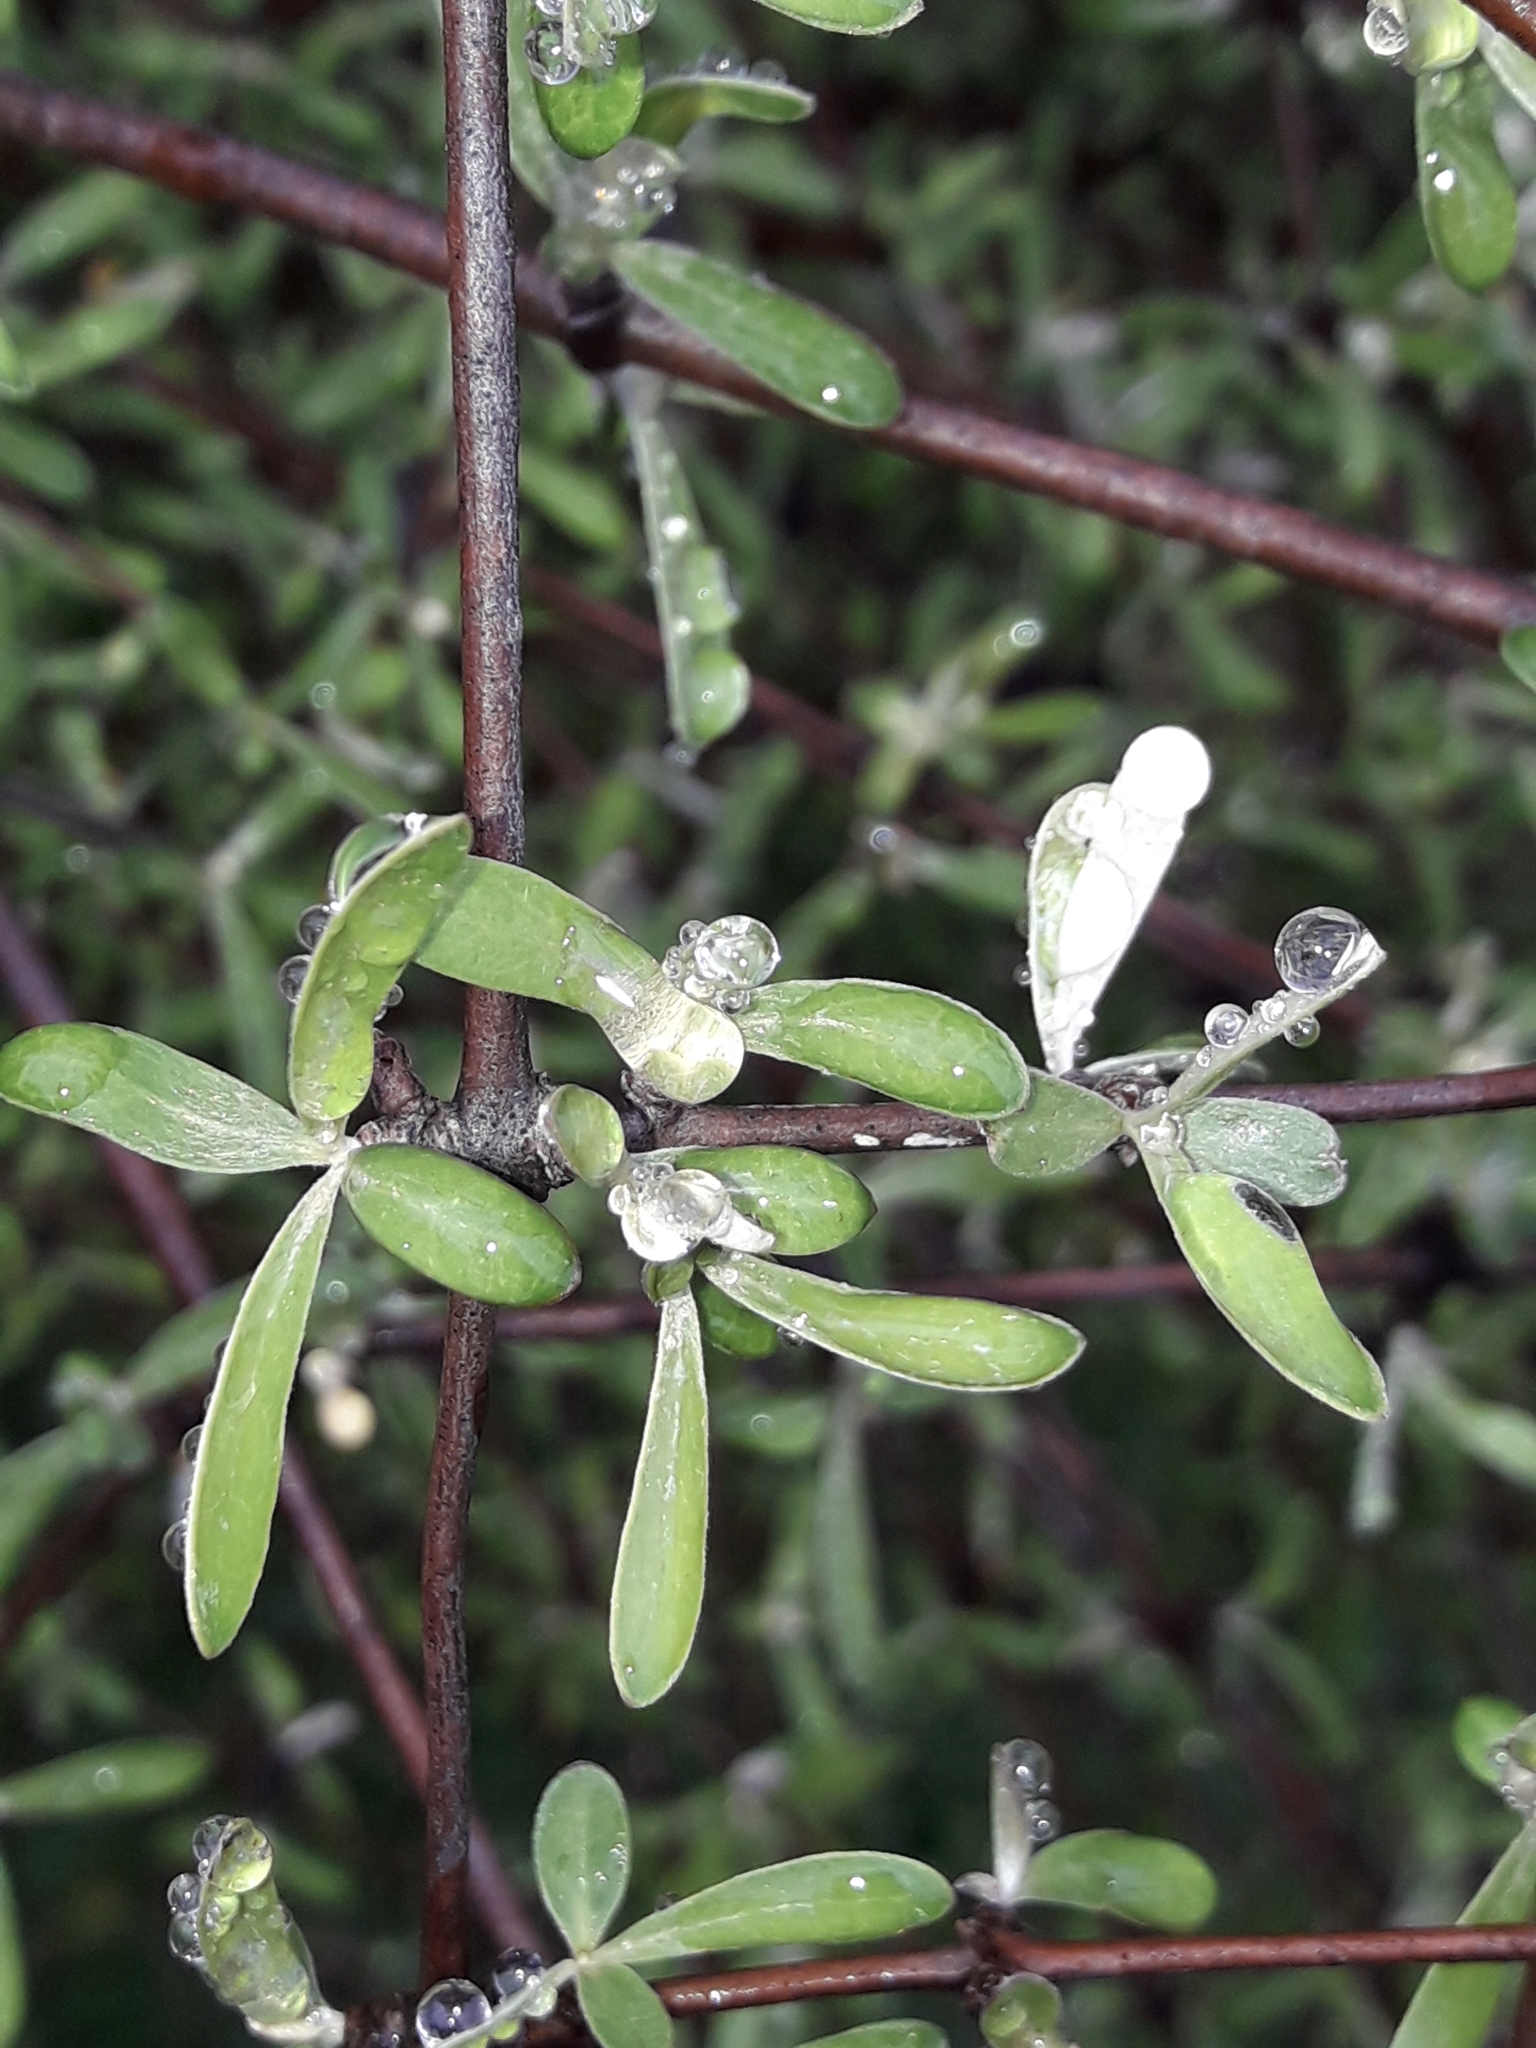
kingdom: Plantae
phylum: Tracheophyta
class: Magnoliopsida
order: Asterales
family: Asteraceae
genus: Olearia
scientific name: Olearia odorata
